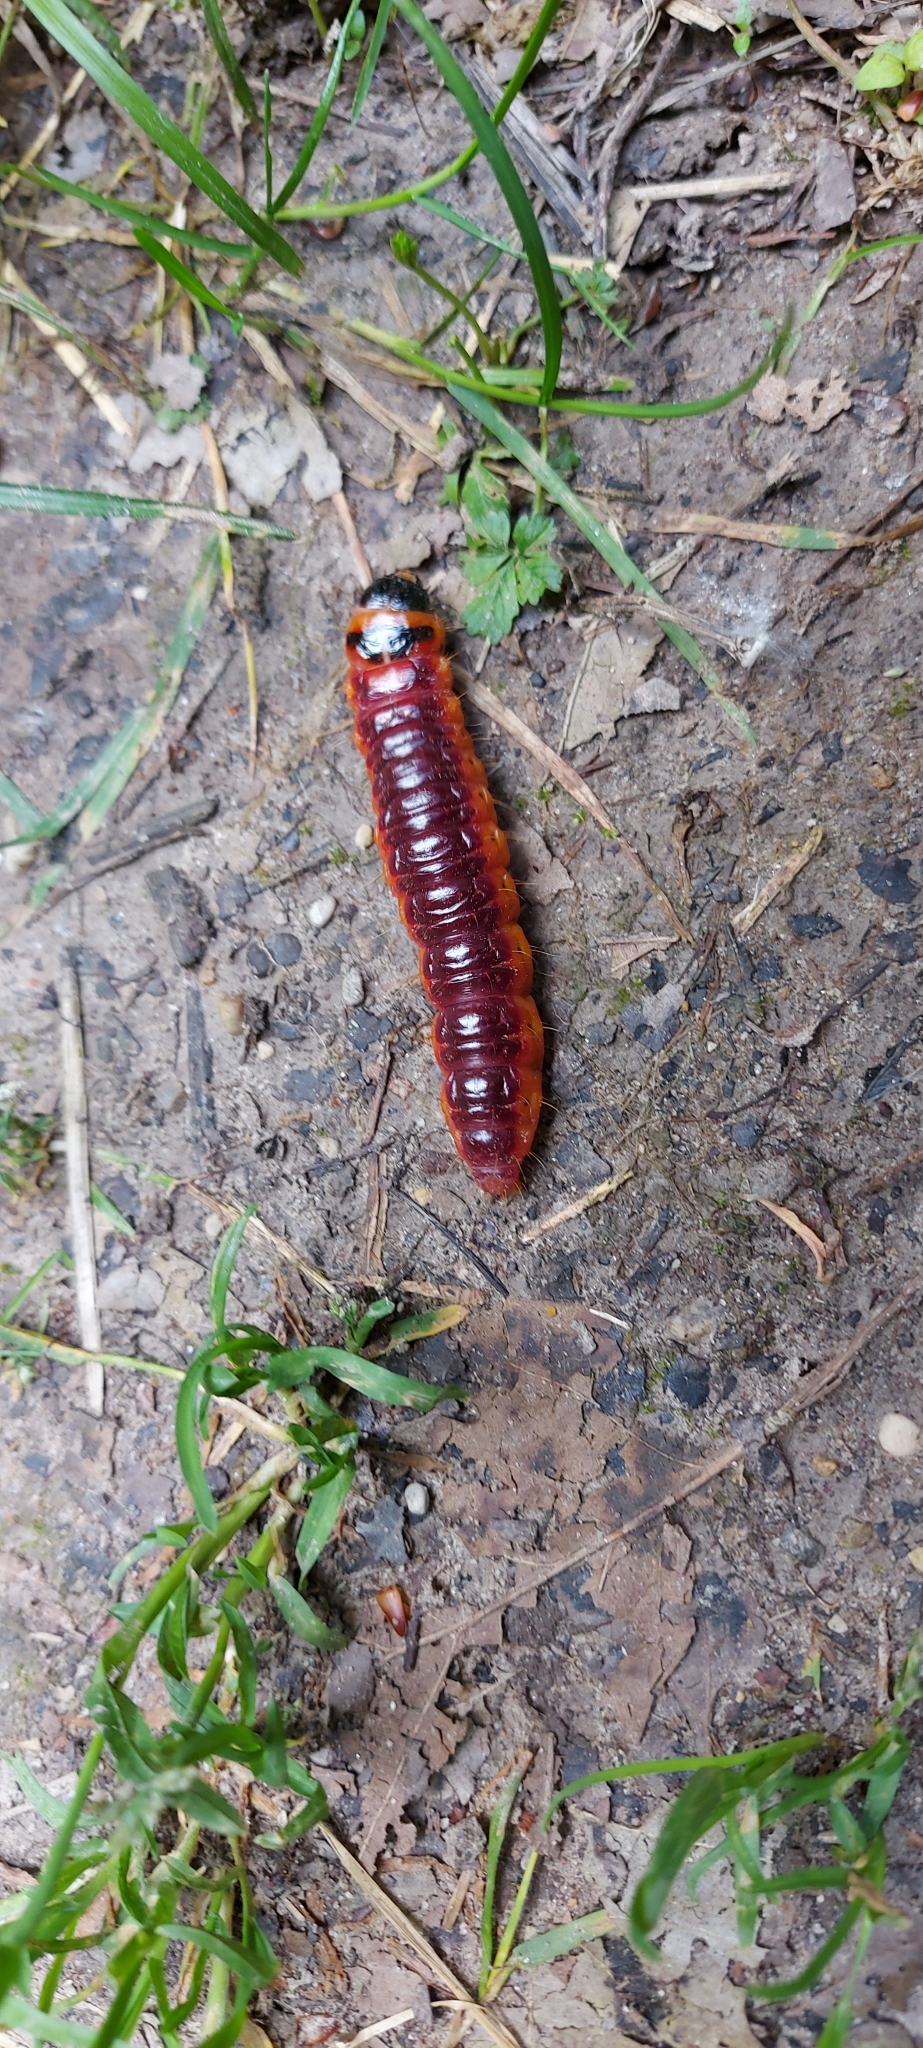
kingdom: Animalia
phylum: Arthropoda
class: Insecta
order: Lepidoptera
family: Cossidae
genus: Cossus
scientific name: Cossus cossus
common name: Goat moth
